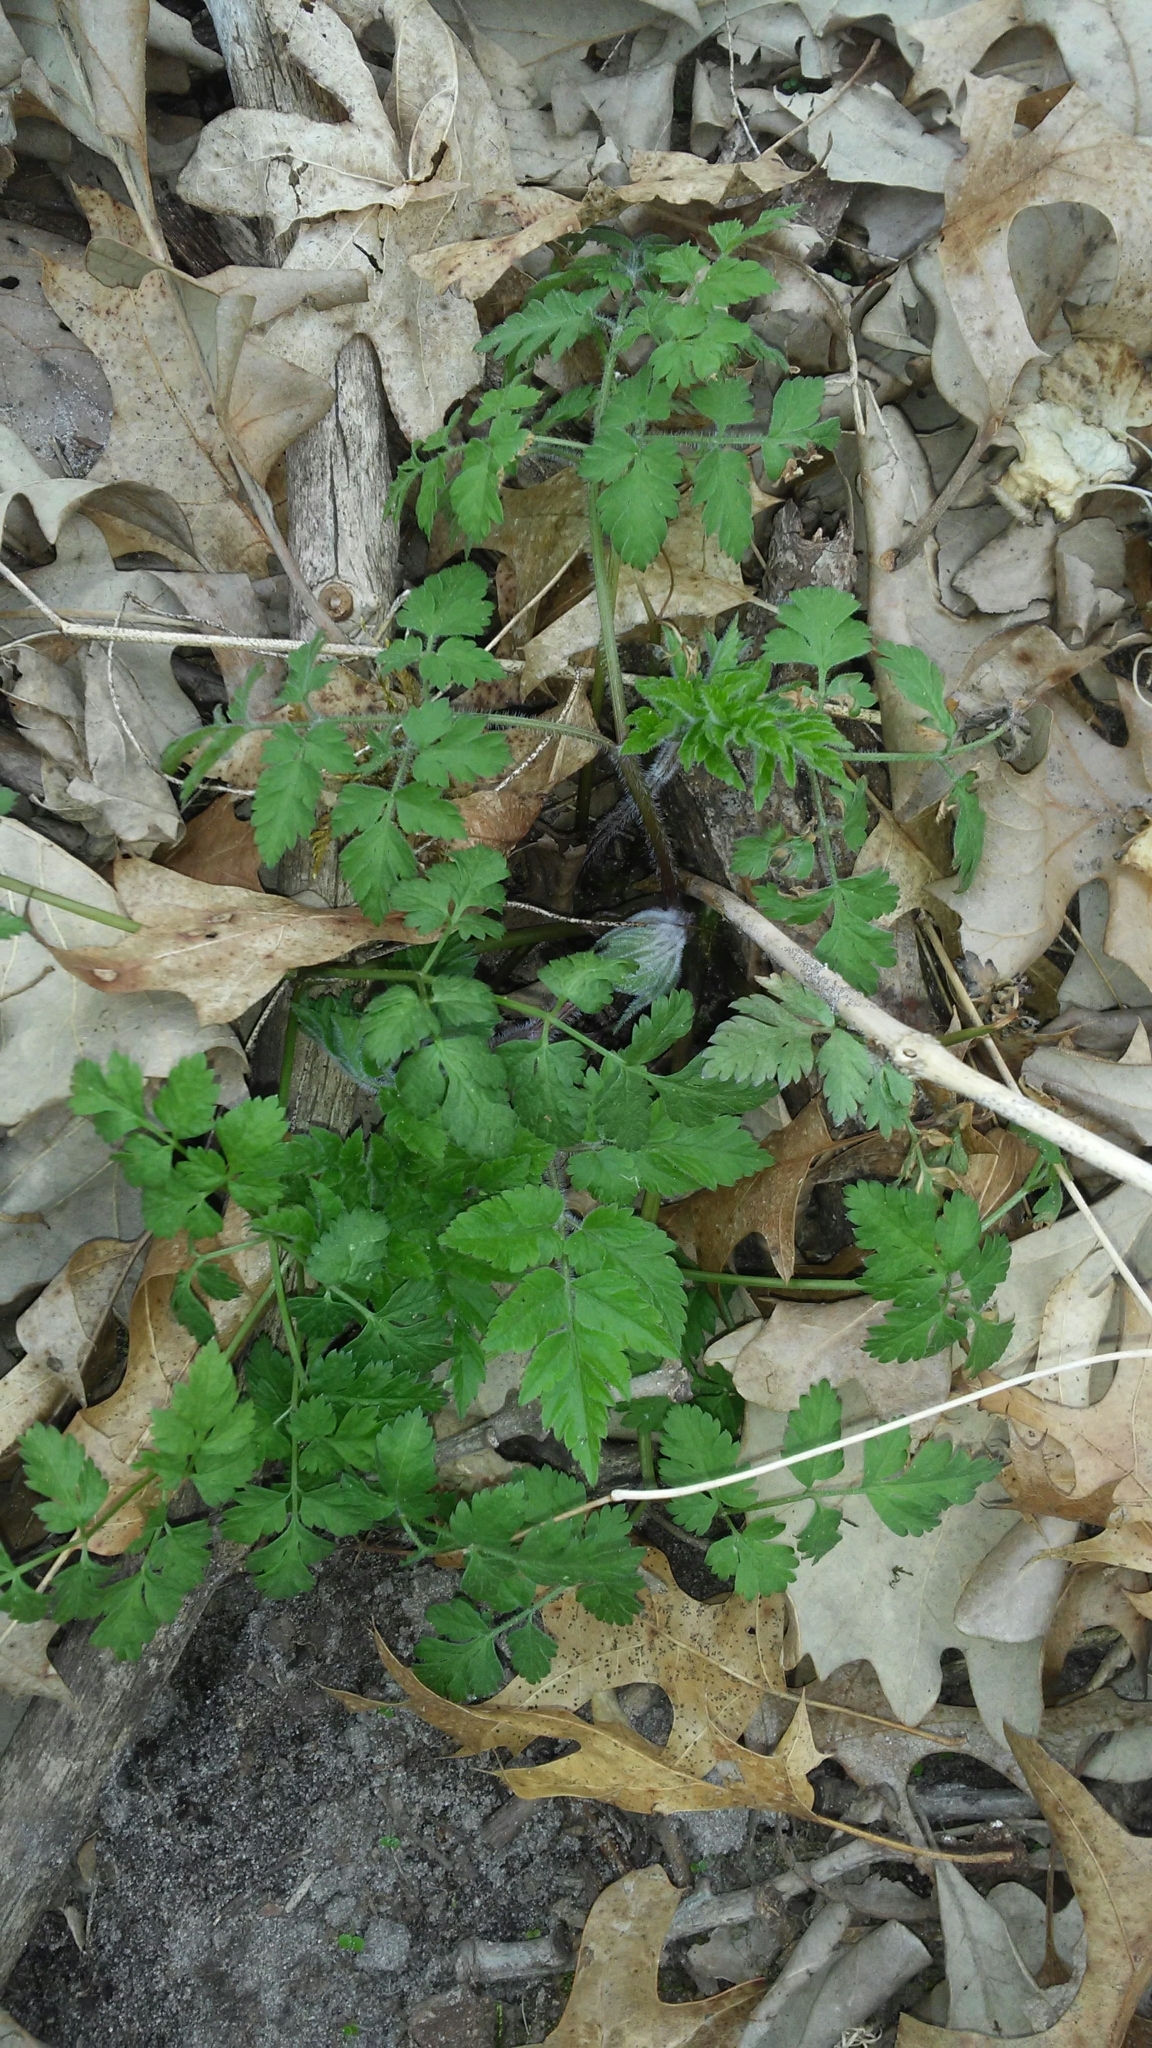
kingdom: Plantae
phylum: Tracheophyta
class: Magnoliopsida
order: Apiales
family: Apiaceae
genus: Osmorhiza
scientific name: Osmorhiza claytonii
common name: Hairy sweet cicely
